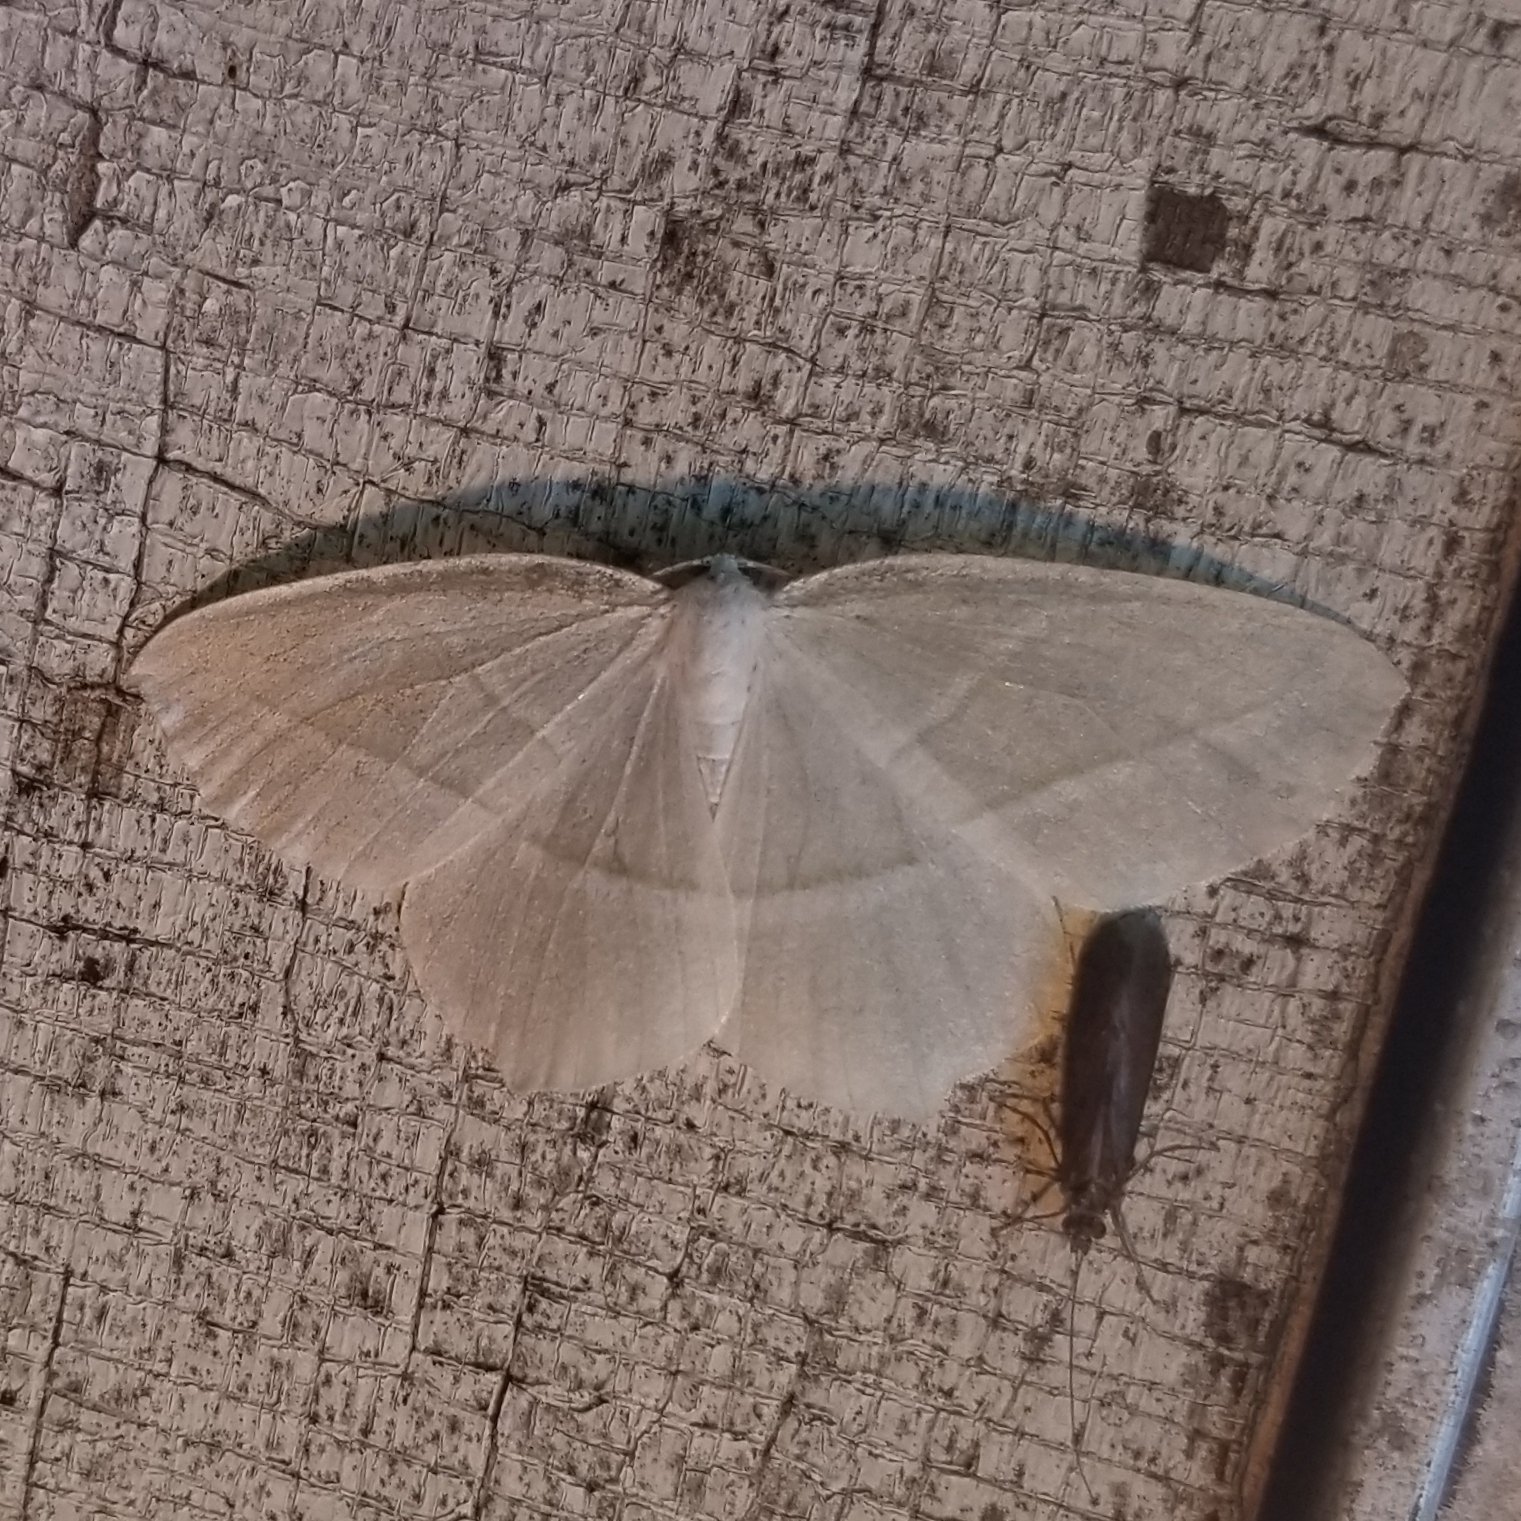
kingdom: Animalia
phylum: Arthropoda
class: Insecta
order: Lepidoptera
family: Geometridae
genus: Campaea
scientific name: Campaea perlata
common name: Fringed looper
